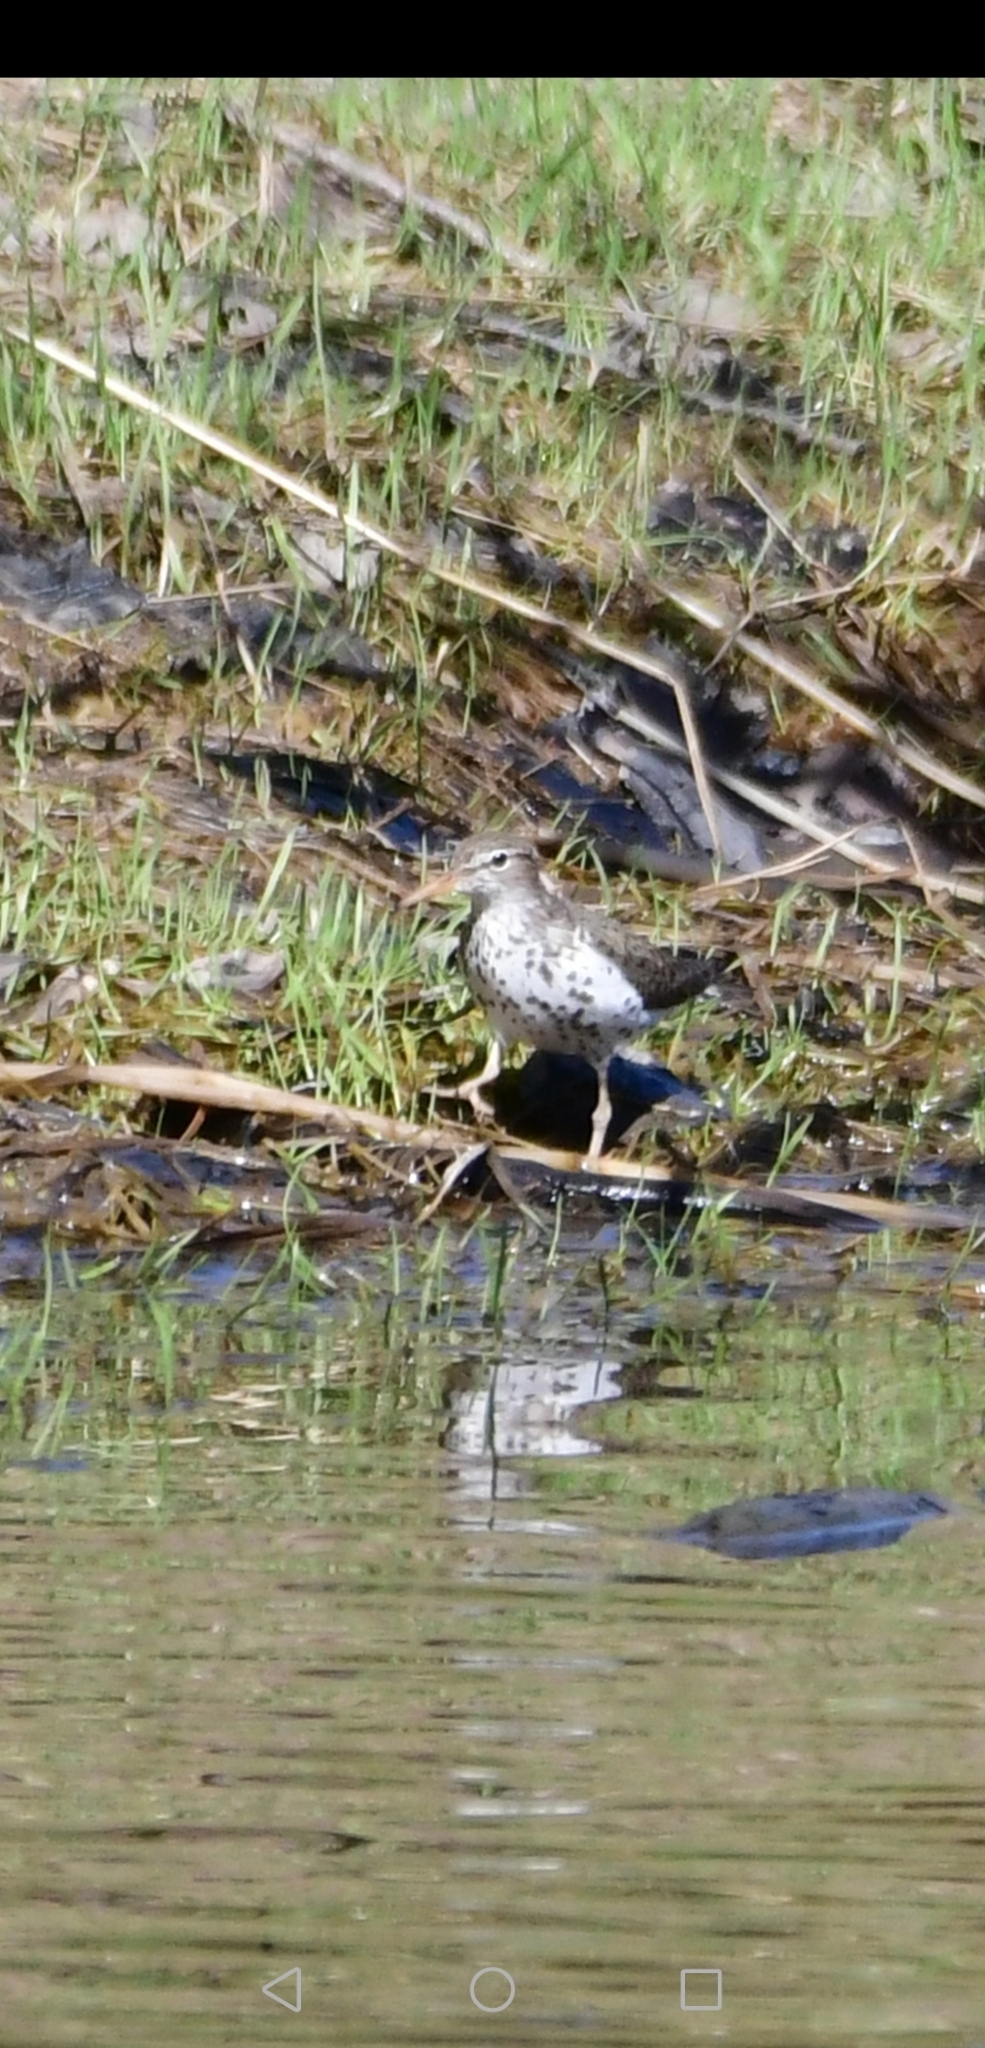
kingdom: Animalia
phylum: Chordata
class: Aves
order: Charadriiformes
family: Scolopacidae
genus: Actitis
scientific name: Actitis macularius
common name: Spotted sandpiper
